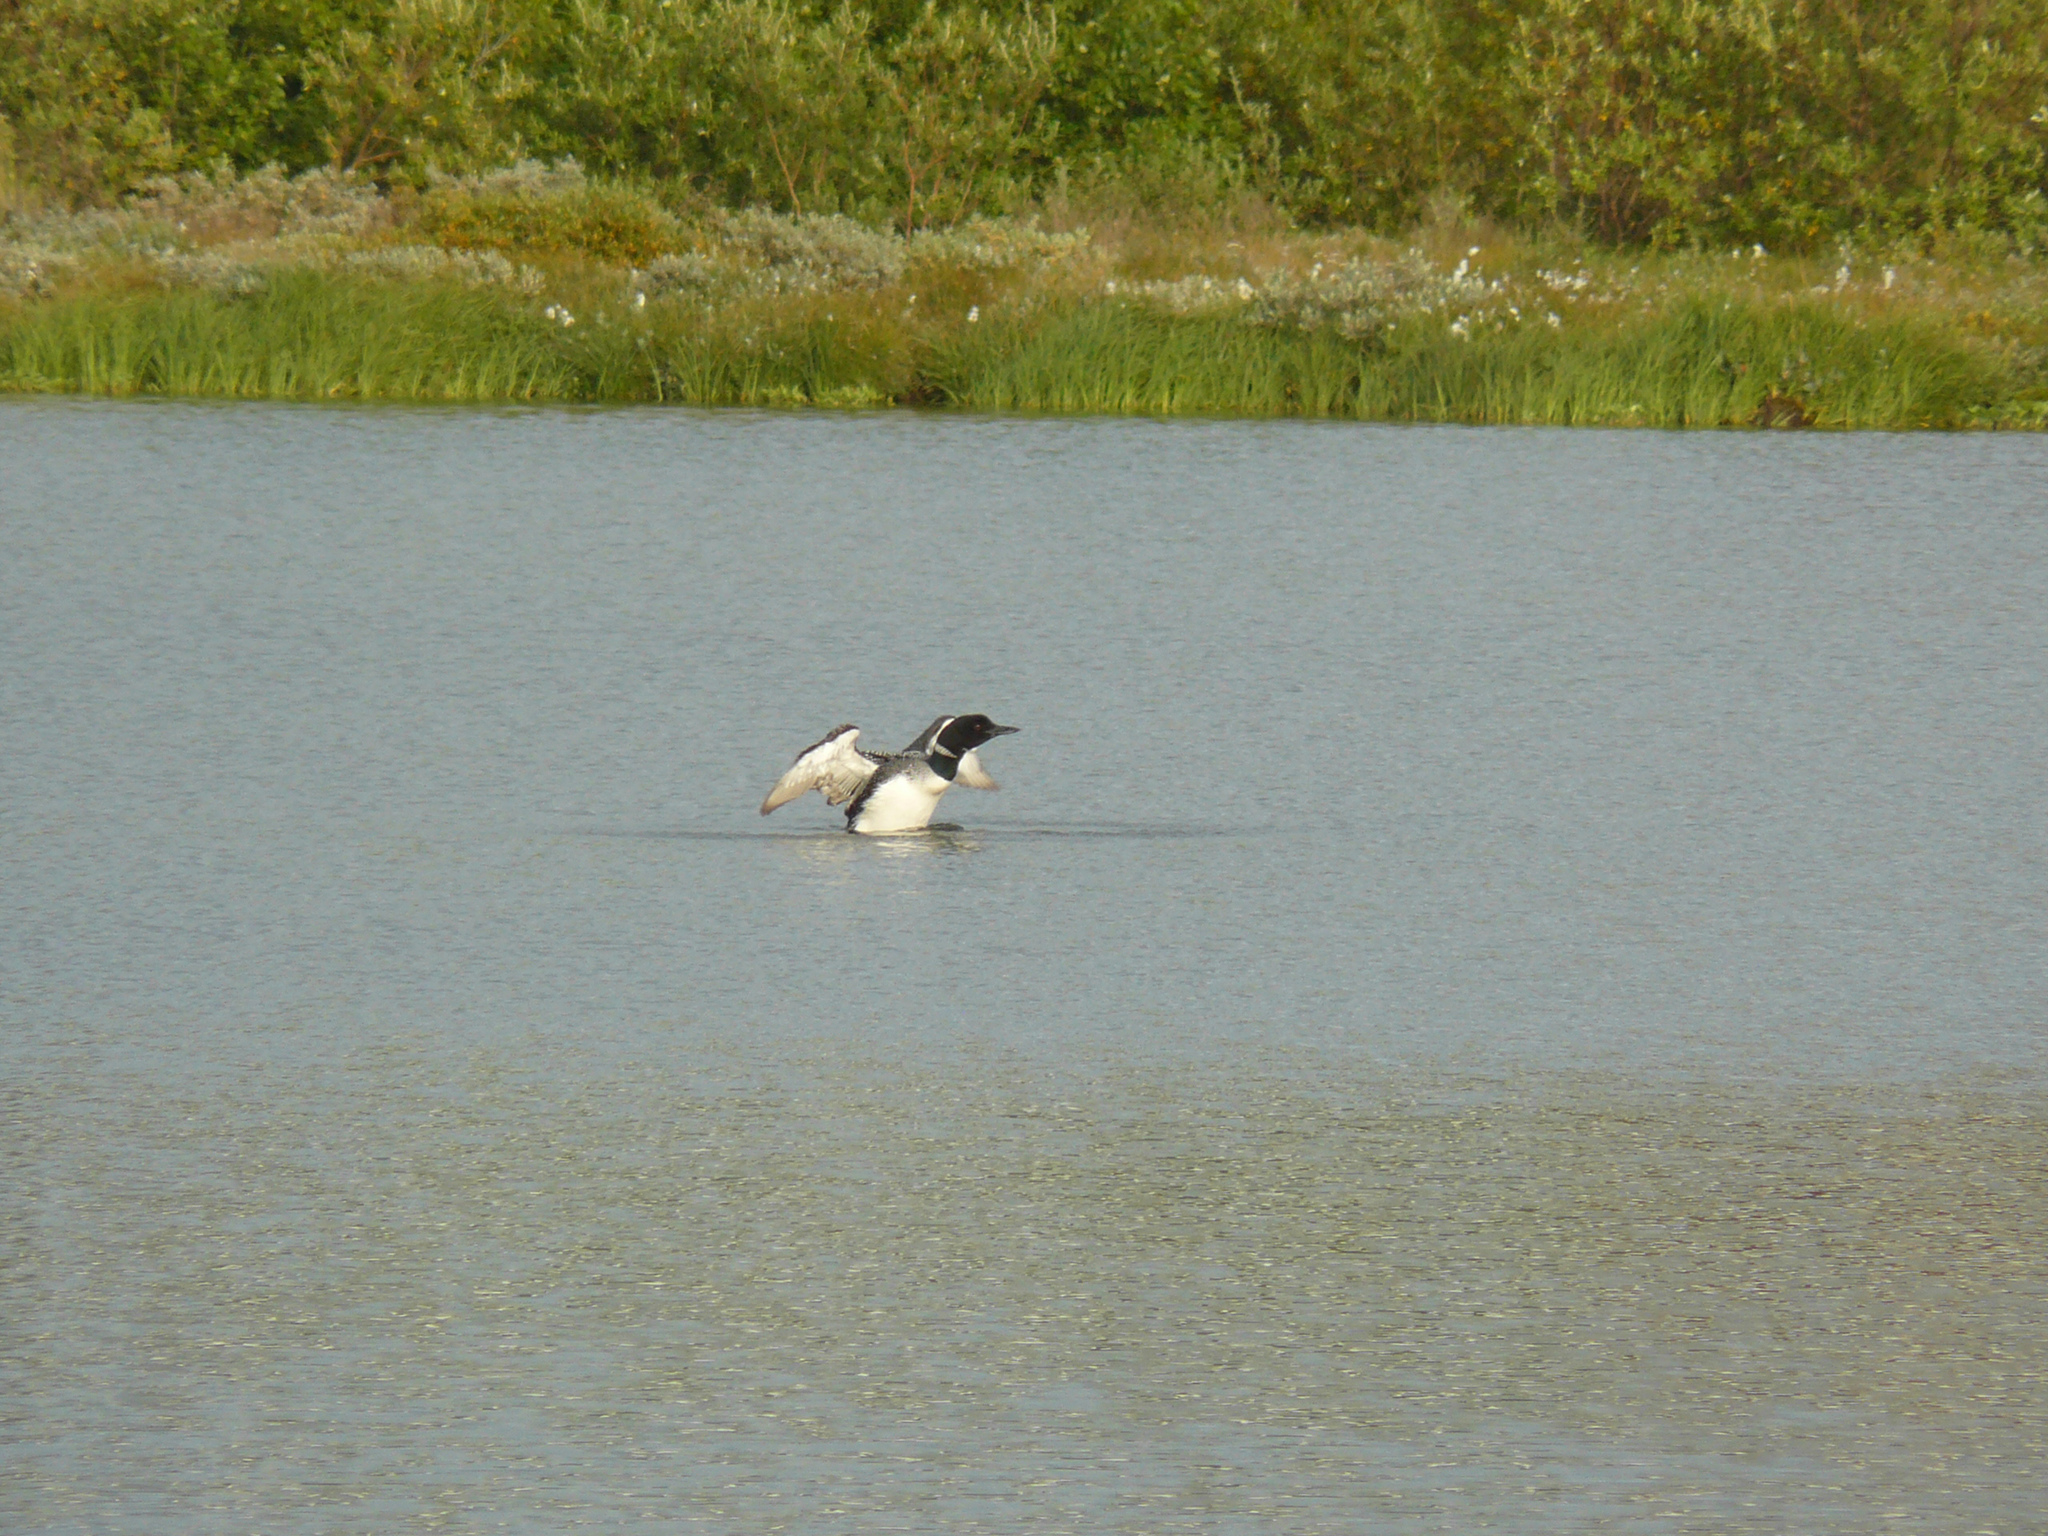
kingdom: Animalia
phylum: Chordata
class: Aves
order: Gaviiformes
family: Gaviidae
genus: Gavia
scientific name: Gavia immer
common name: Common loon
